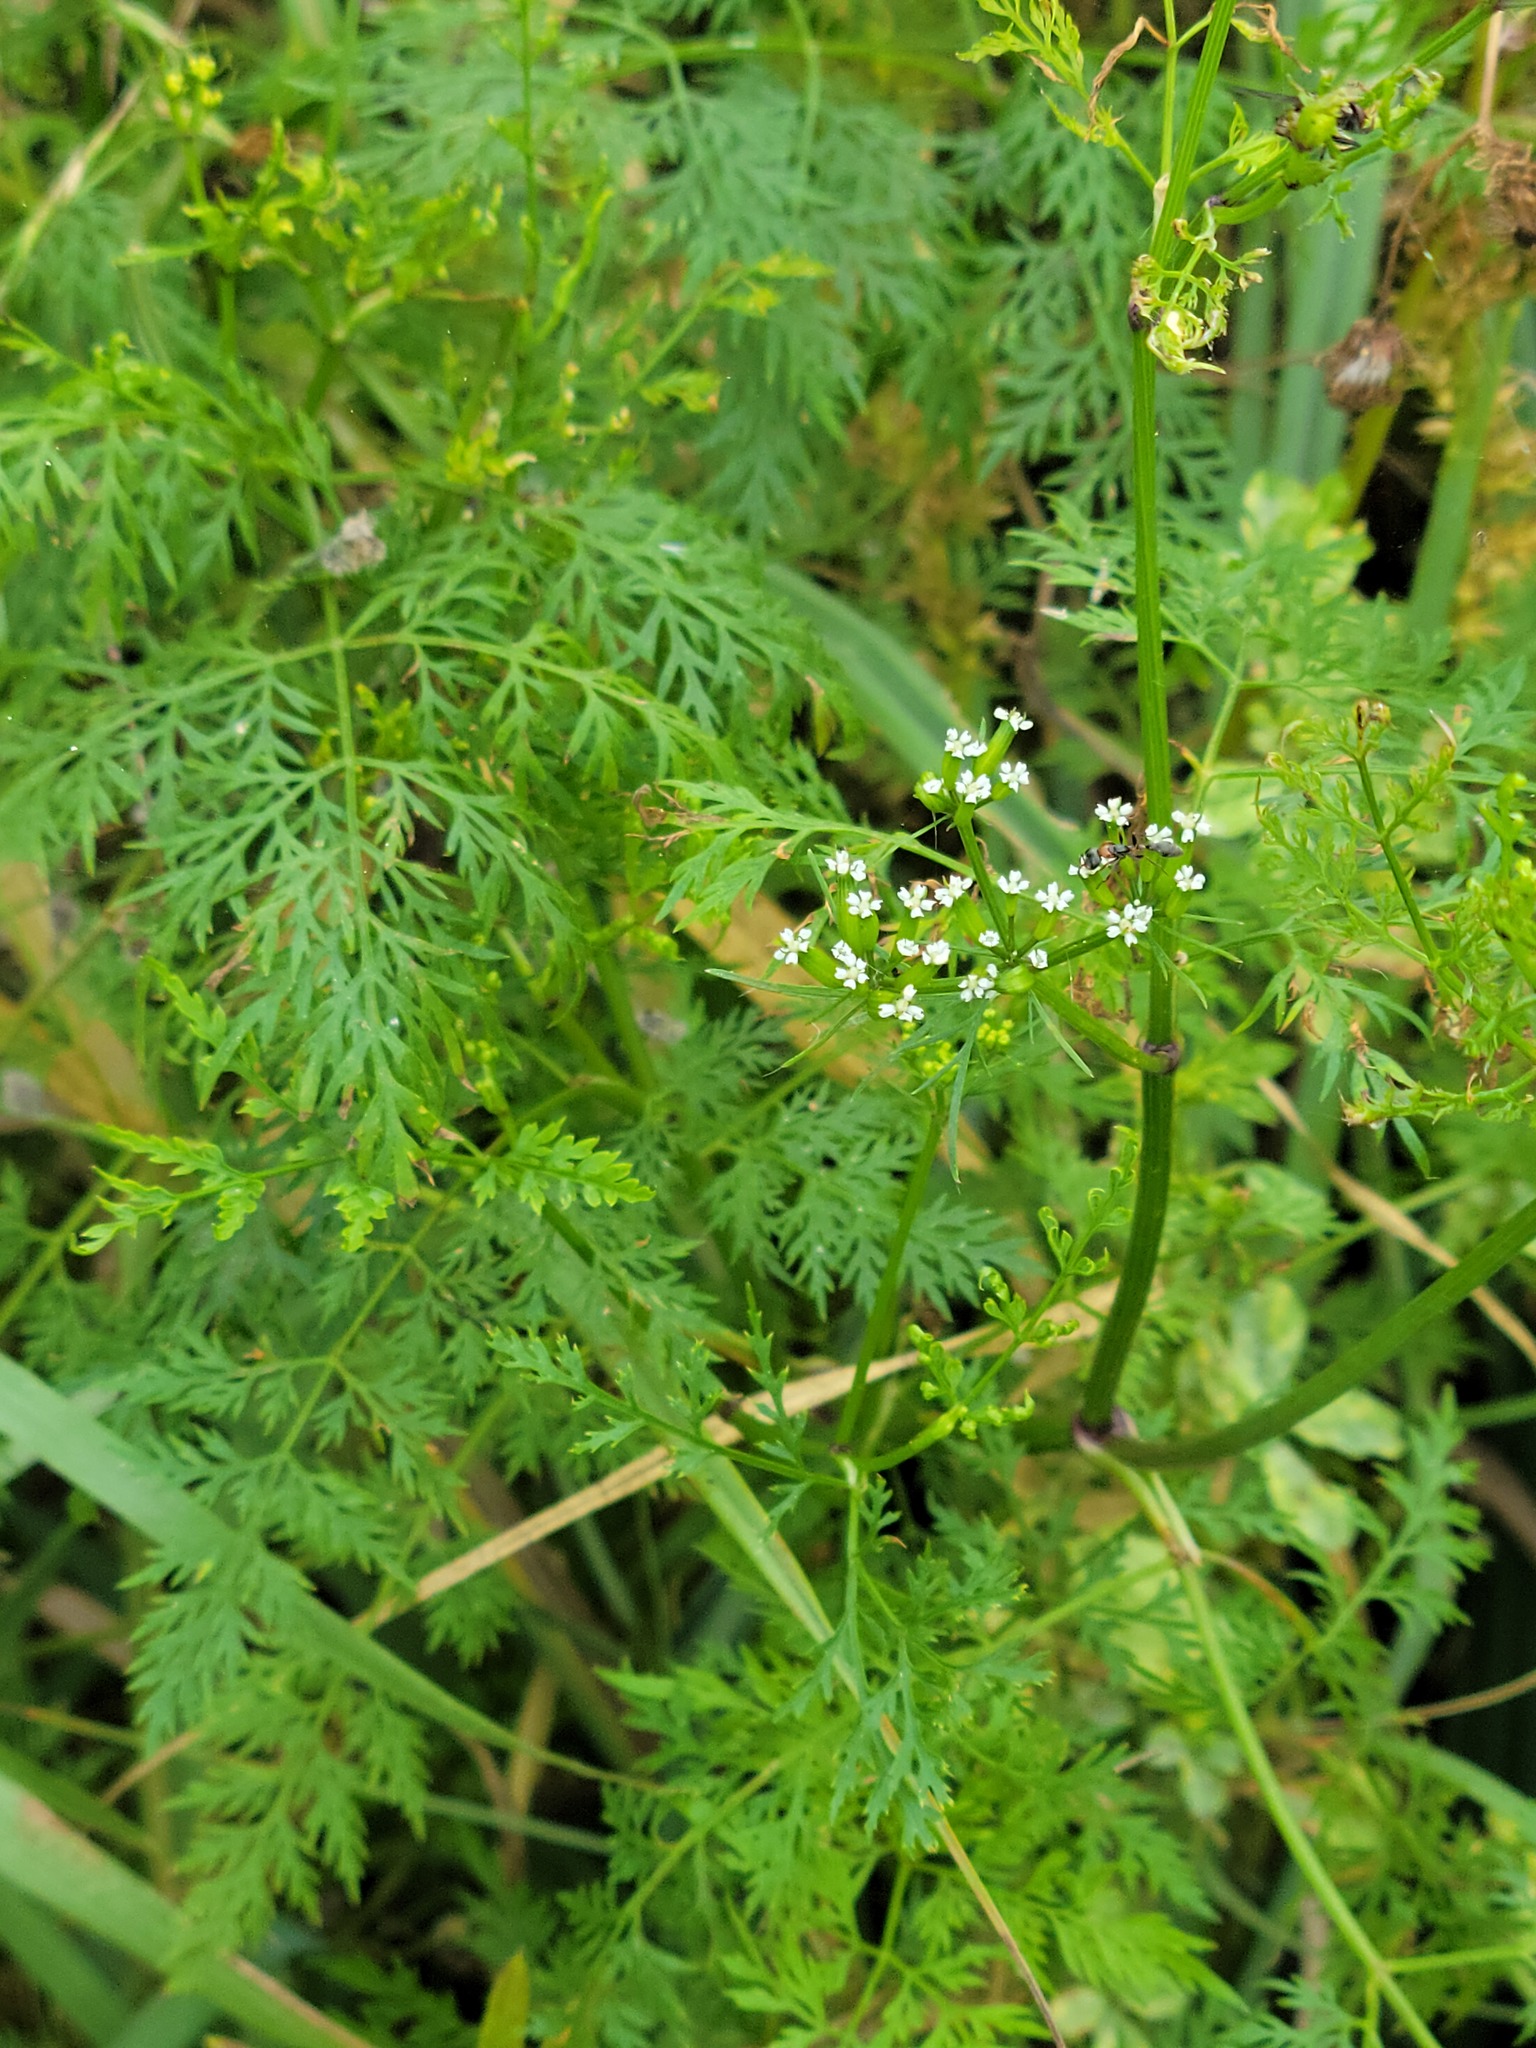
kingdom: Plantae
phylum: Tracheophyta
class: Magnoliopsida
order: Apiales
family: Apiaceae
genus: Trepocarpus
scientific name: Trepocarpus aethusae
